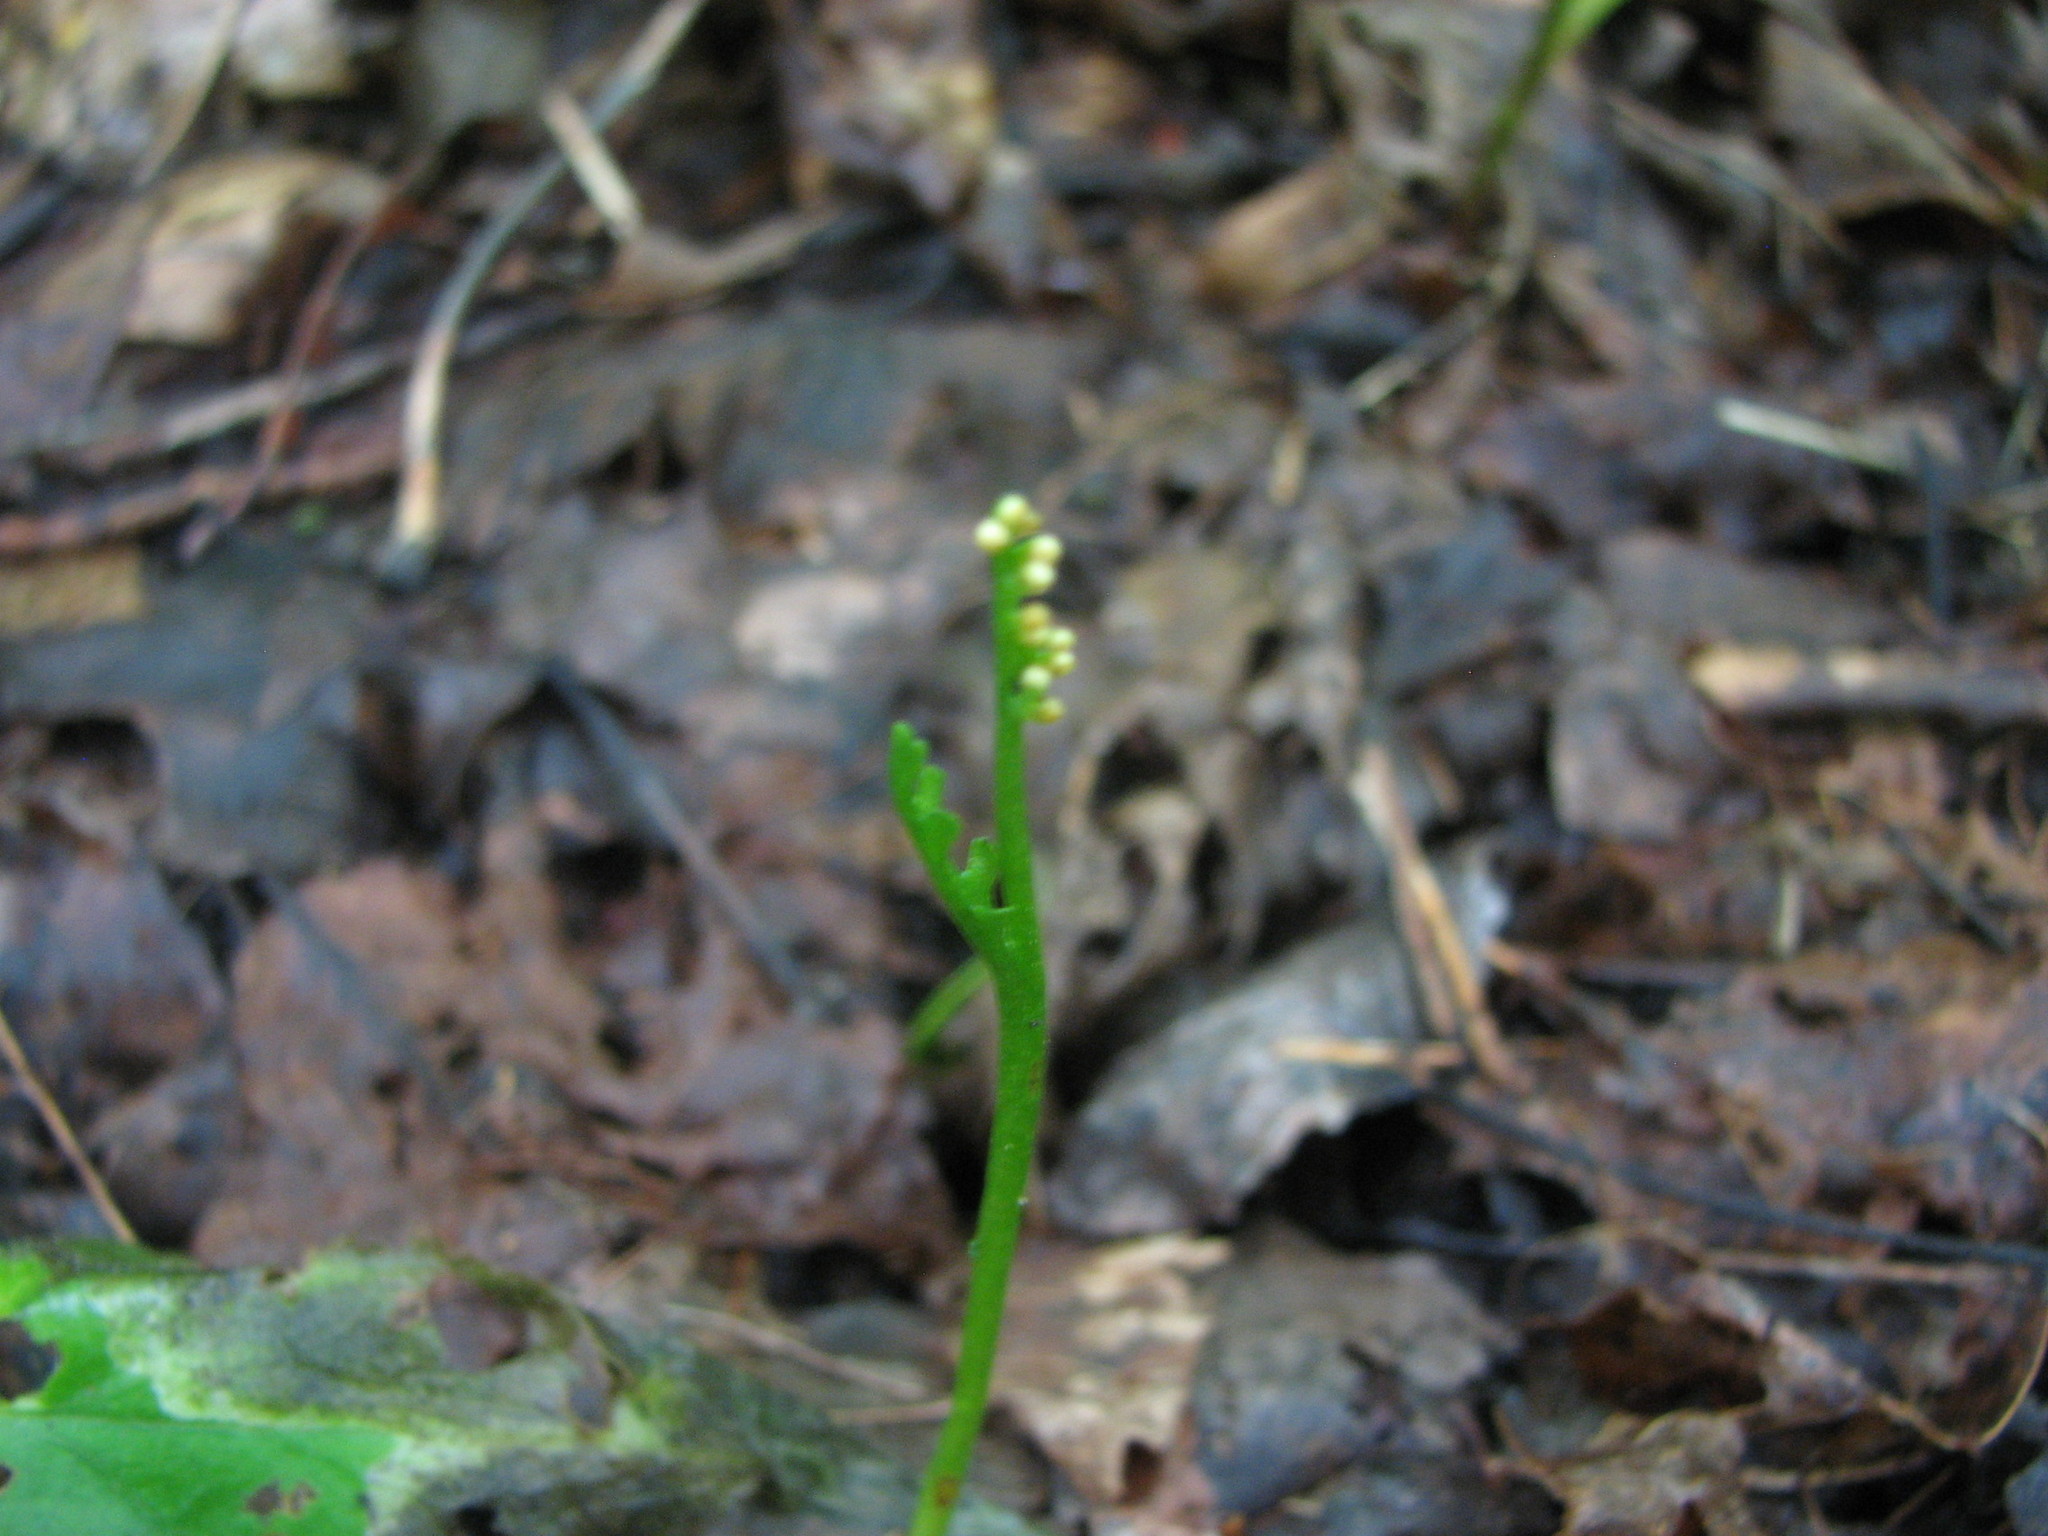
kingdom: Plantae
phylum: Tracheophyta
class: Polypodiopsida
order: Ophioglossales
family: Ophioglossaceae
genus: Botrychium
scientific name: Botrychium ascendens
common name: Ascending grapefern
